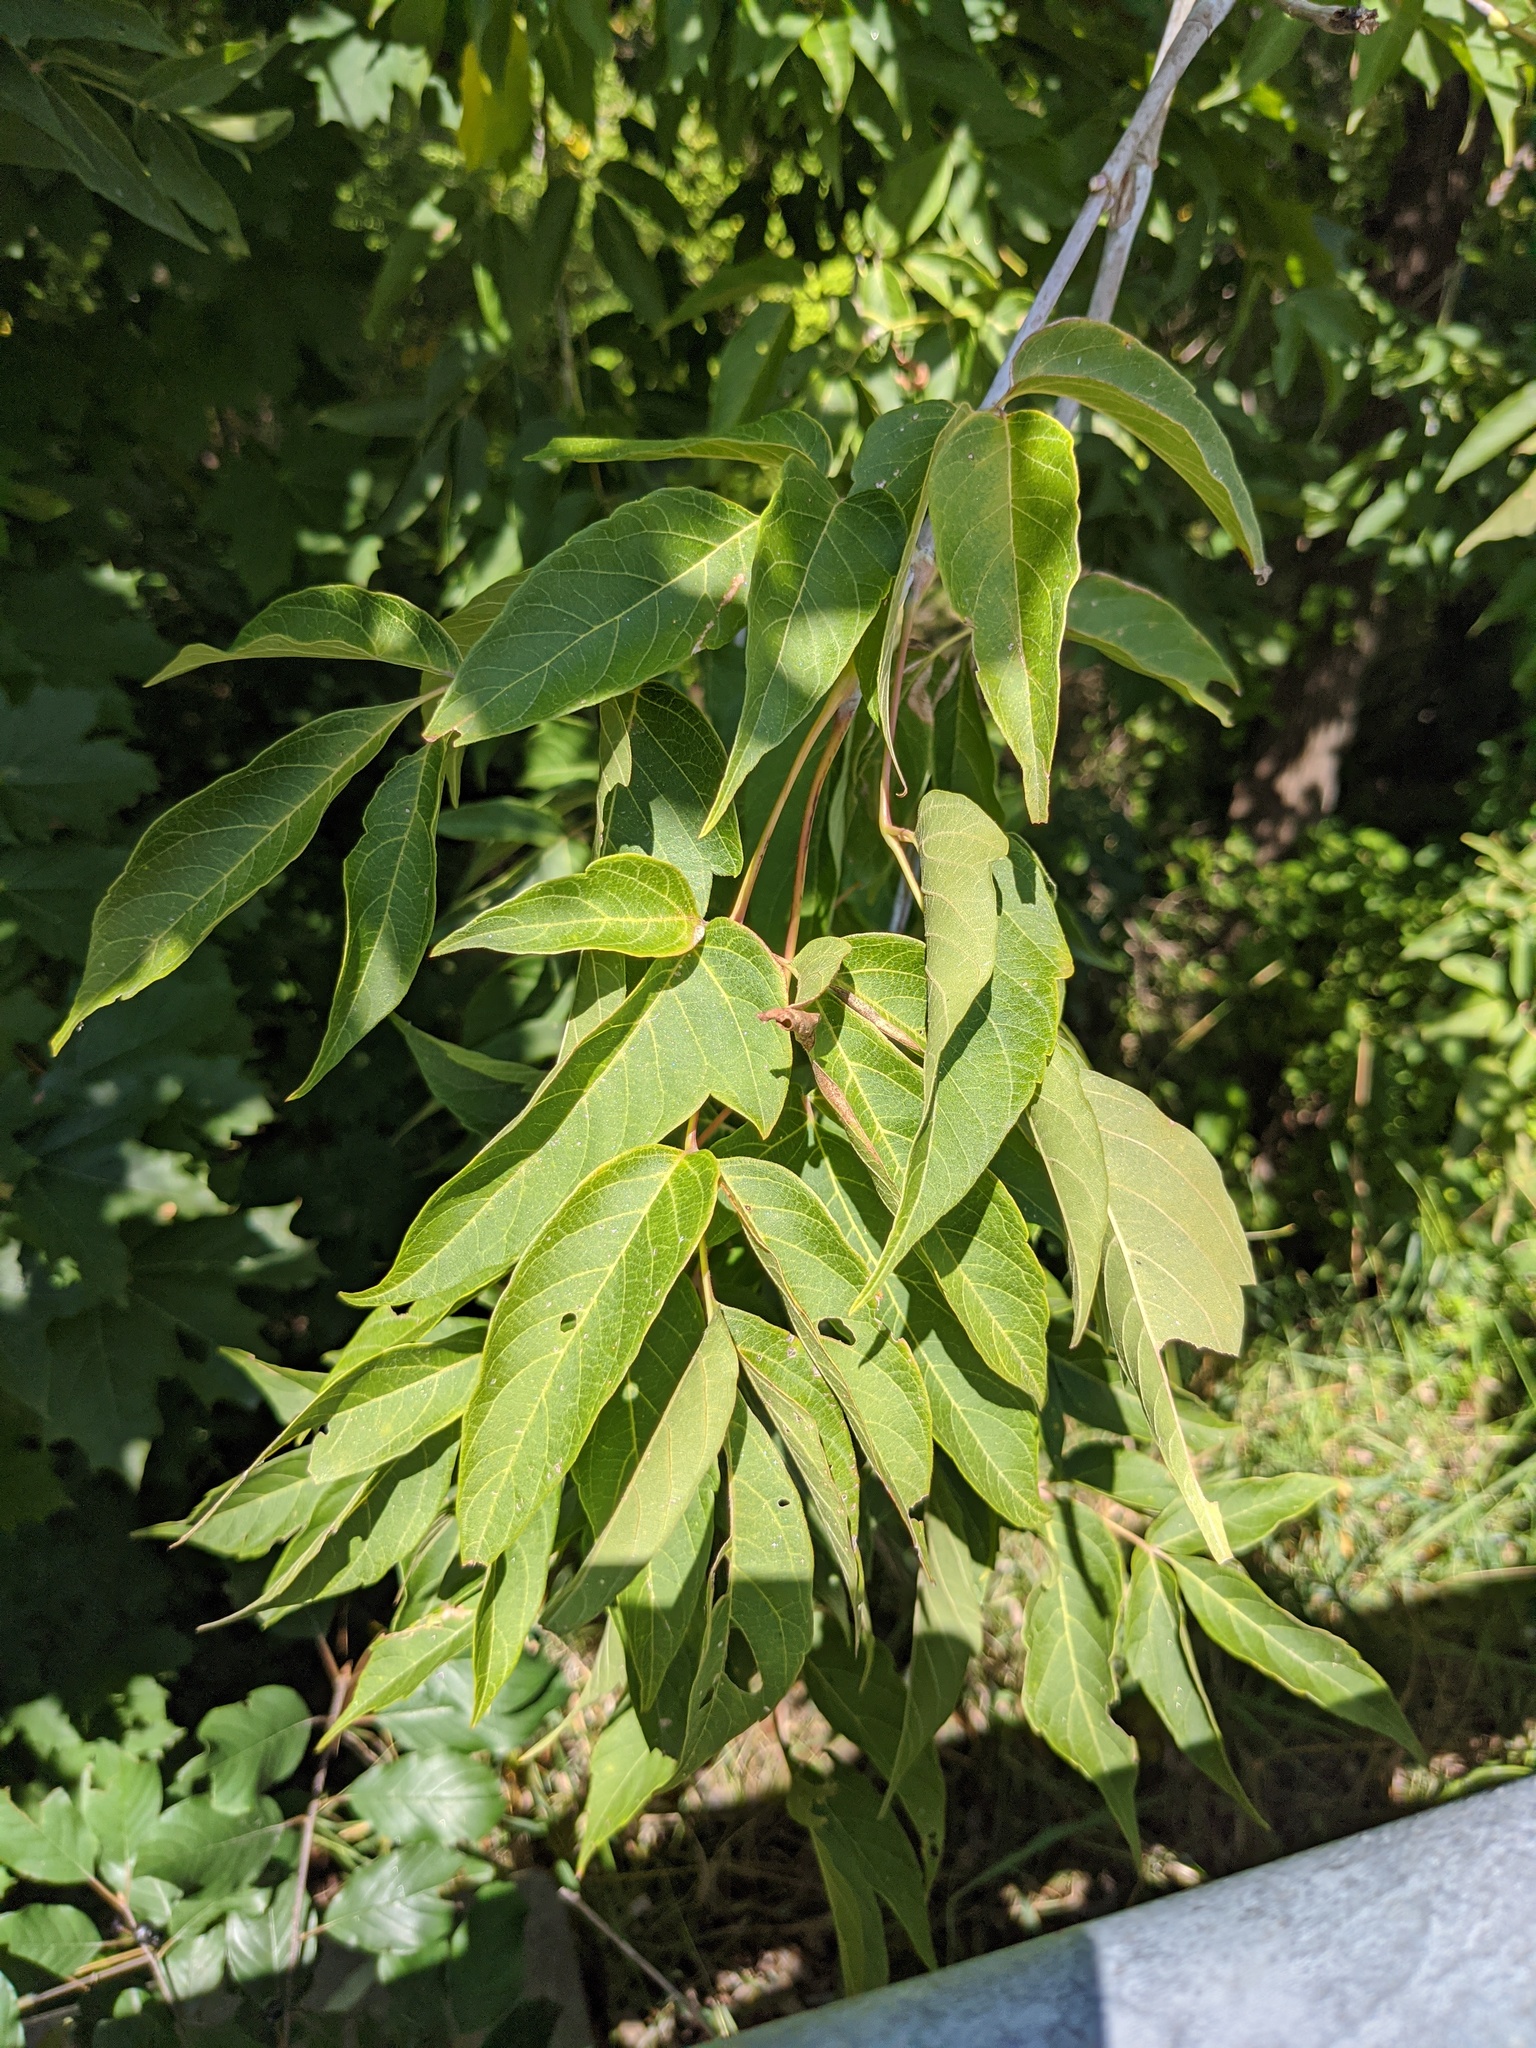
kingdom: Plantae
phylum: Tracheophyta
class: Magnoliopsida
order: Sapindales
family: Sapindaceae
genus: Acer
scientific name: Acer negundo
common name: Ashleaf maple
